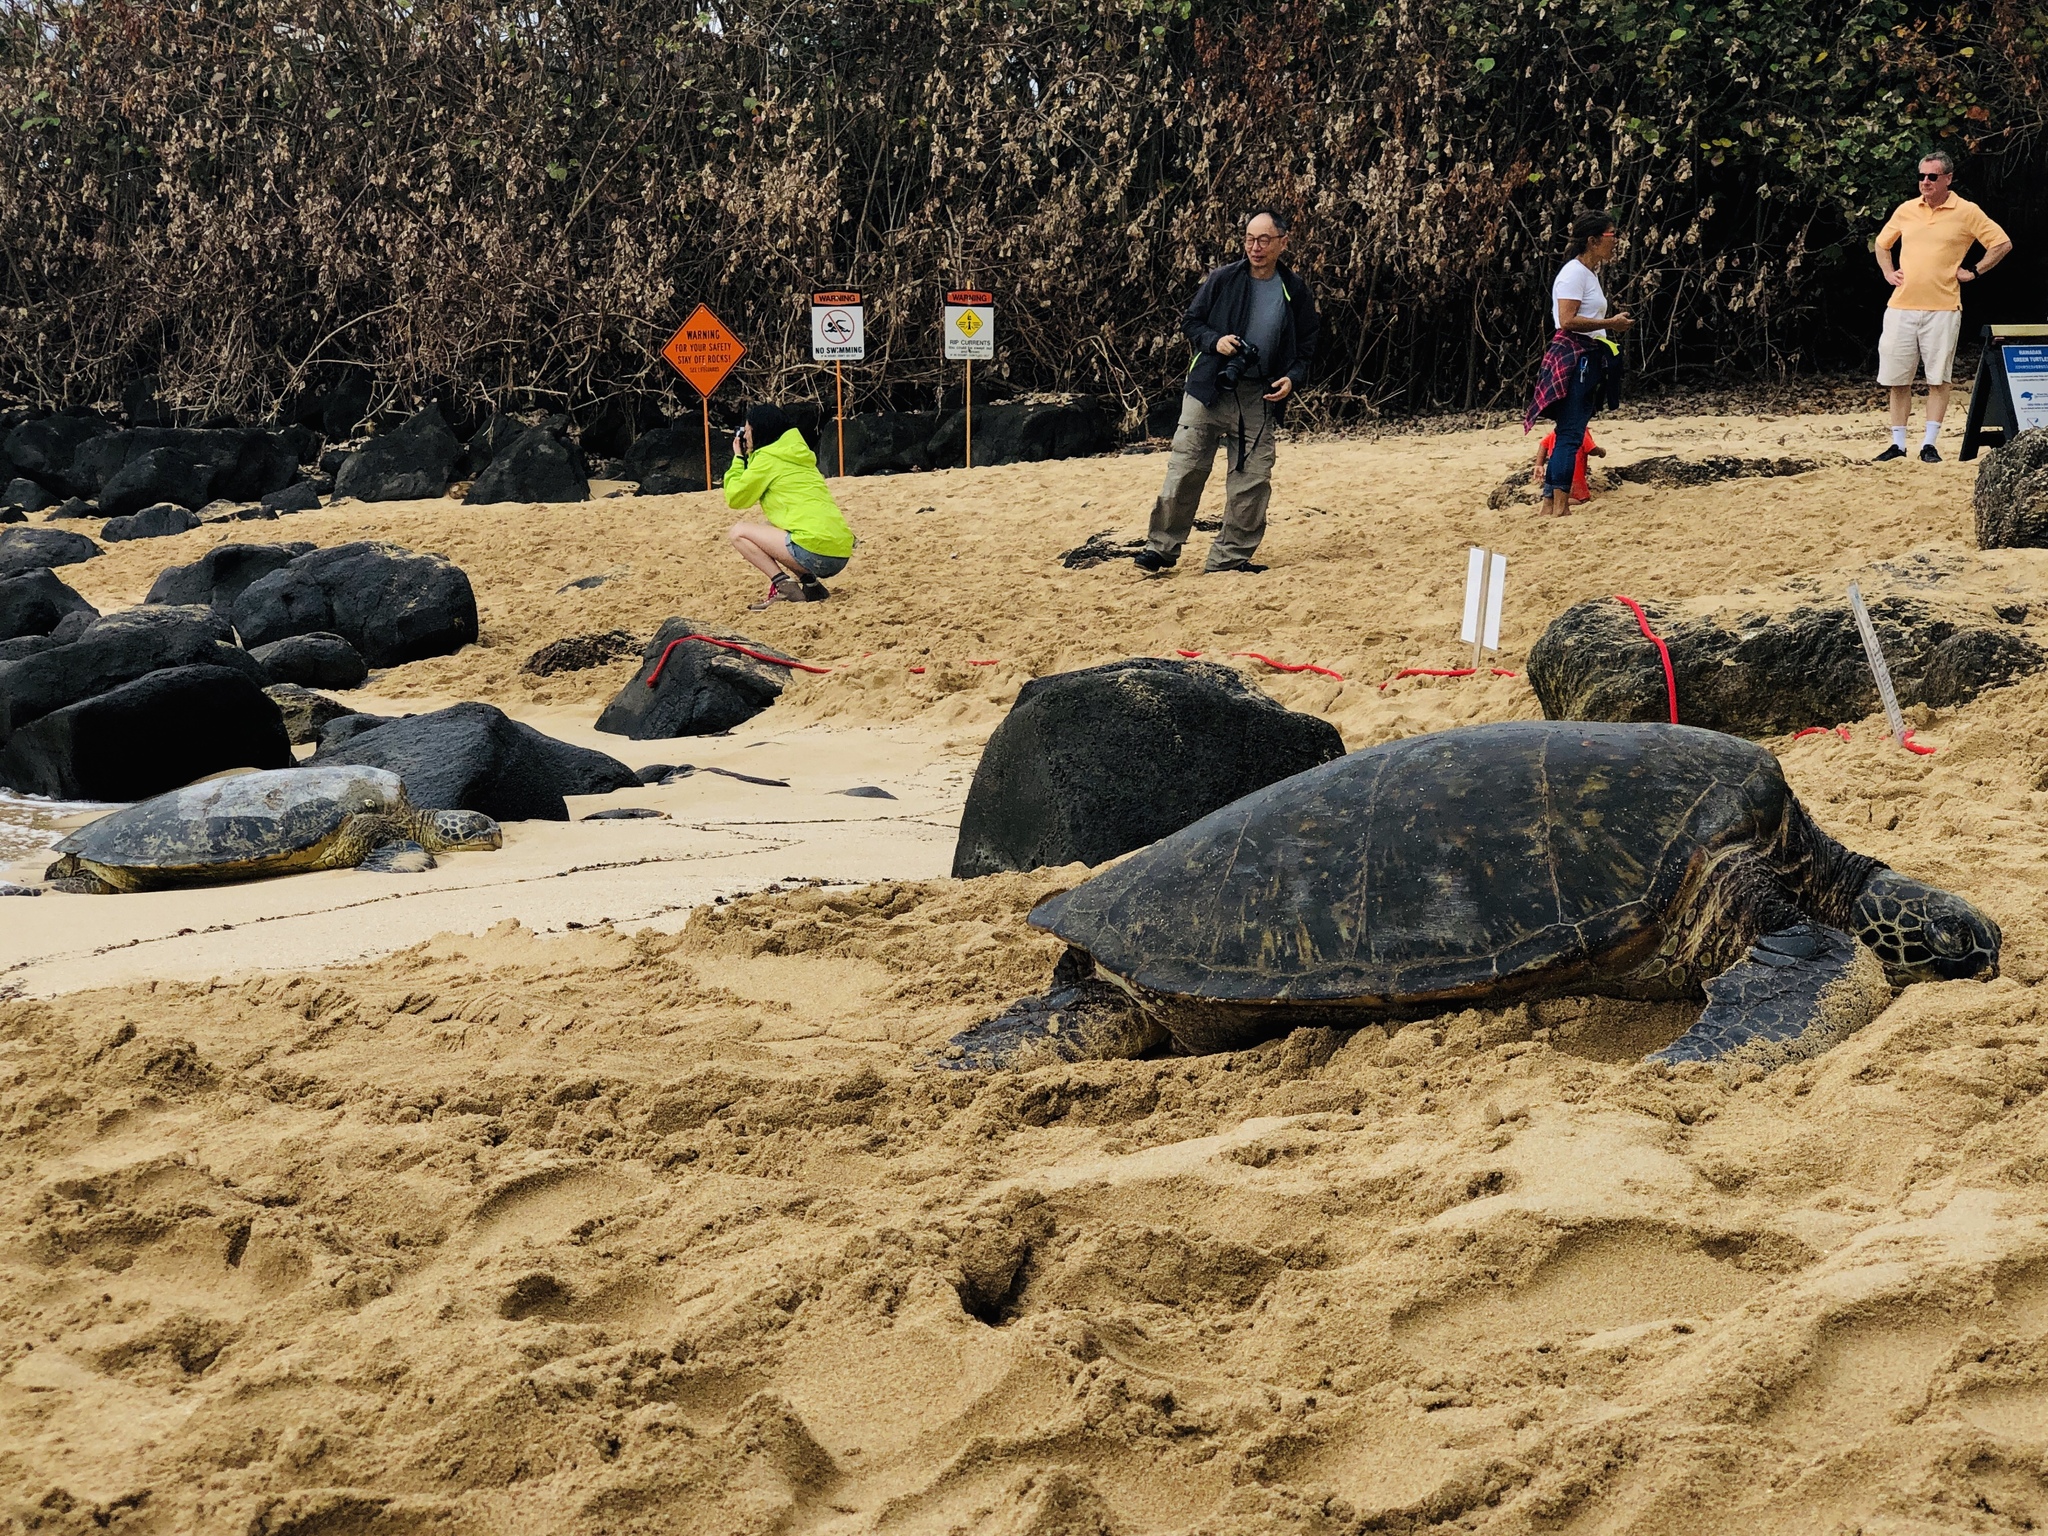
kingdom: Animalia
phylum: Chordata
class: Testudines
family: Cheloniidae
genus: Chelonia
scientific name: Chelonia mydas
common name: Green turtle
